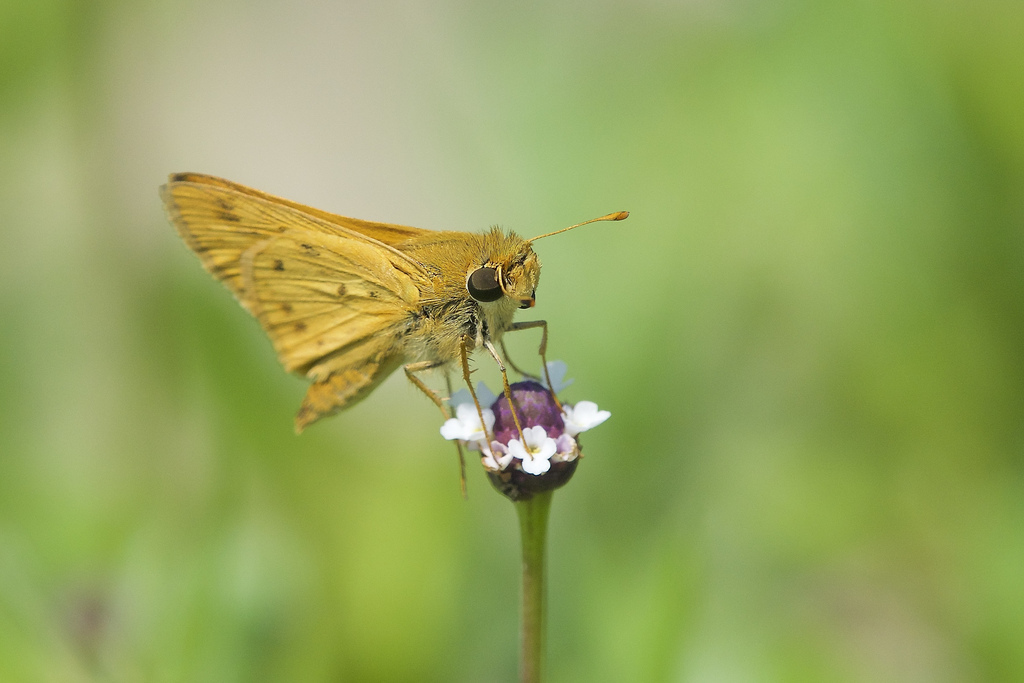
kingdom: Animalia
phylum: Arthropoda
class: Insecta
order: Lepidoptera
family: Hesperiidae
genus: Hylephila
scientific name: Hylephila phyleus
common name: Fiery skipper
